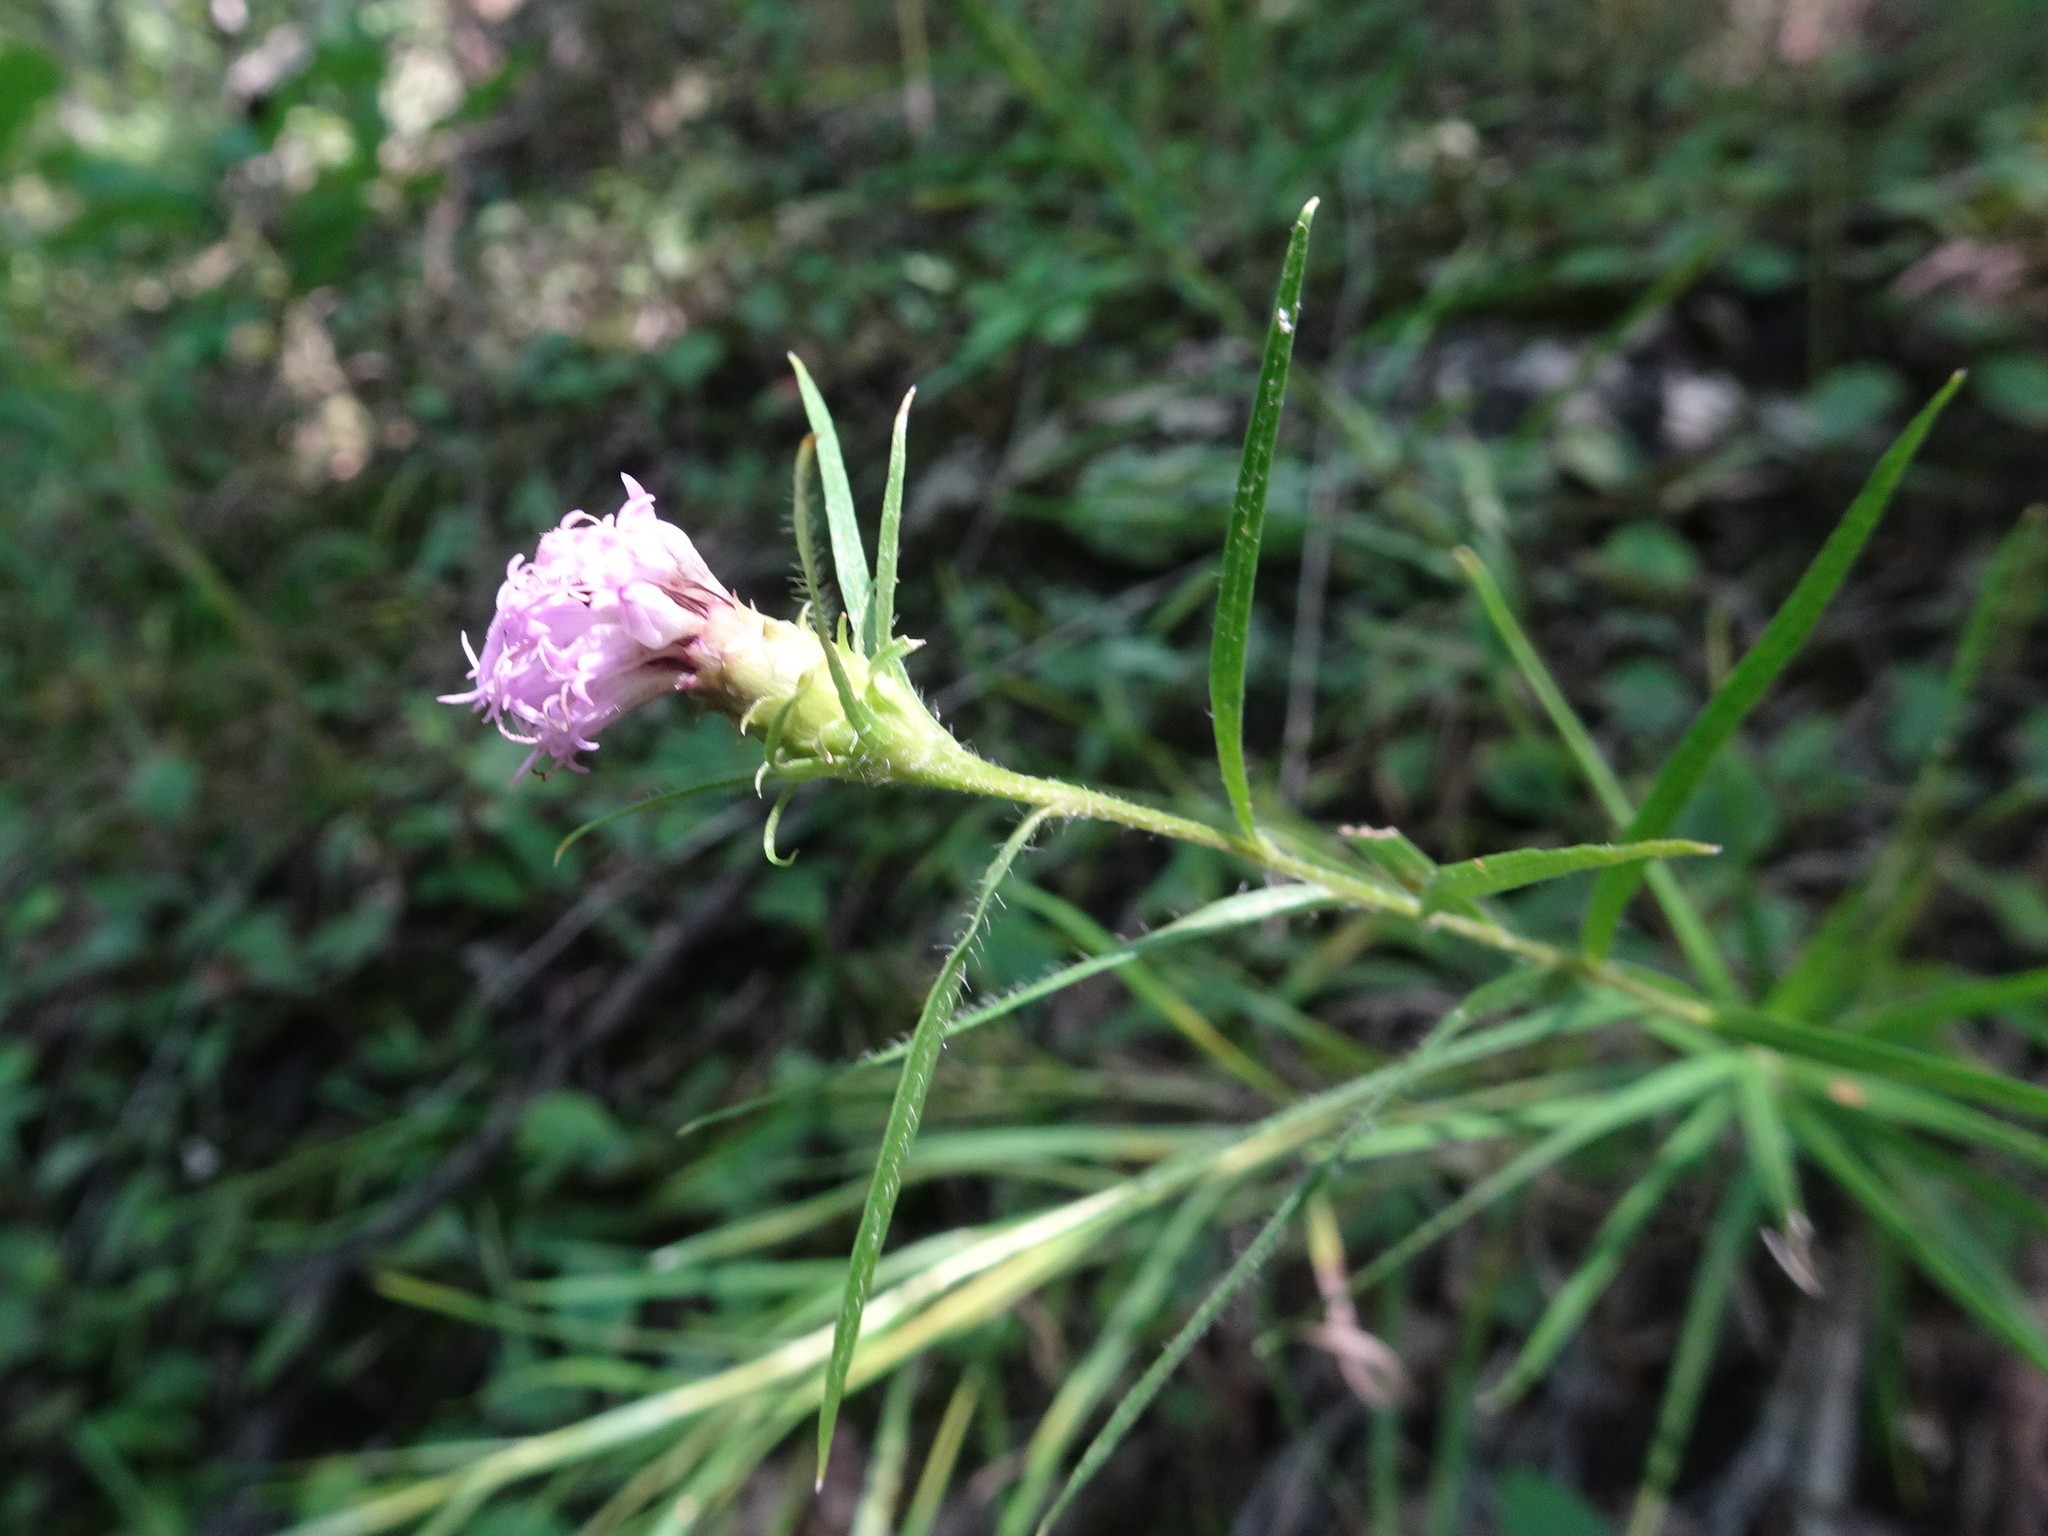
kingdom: Plantae
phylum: Tracheophyta
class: Magnoliopsida
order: Asterales
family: Asteraceae
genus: Liatris
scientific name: Liatris hirsuta
